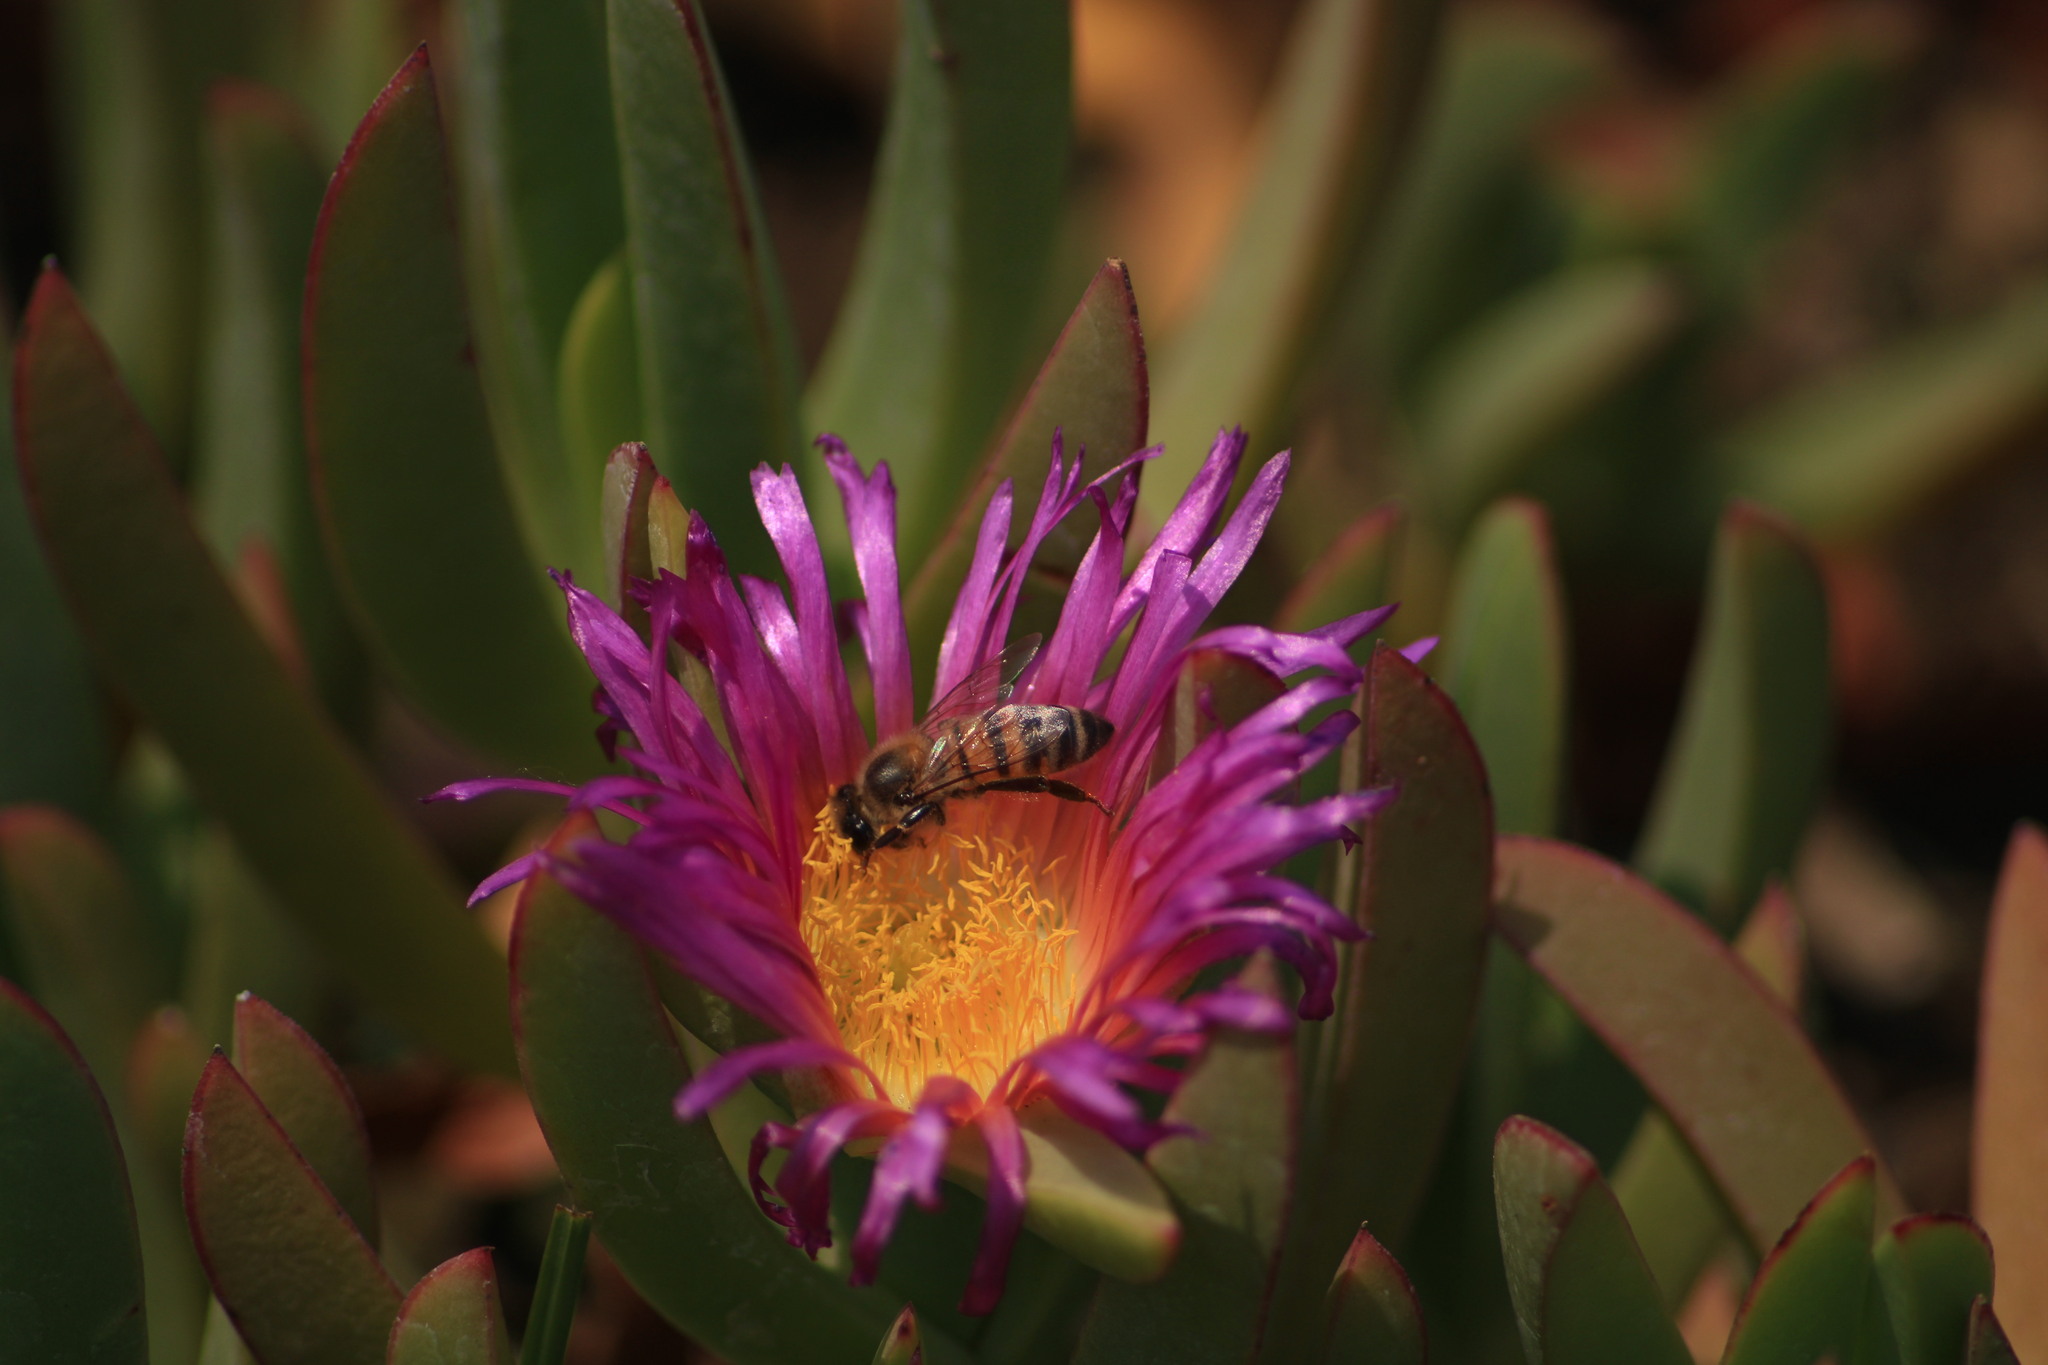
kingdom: Animalia
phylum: Arthropoda
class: Insecta
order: Hymenoptera
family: Apidae
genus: Apis
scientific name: Apis mellifera
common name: Honey bee
